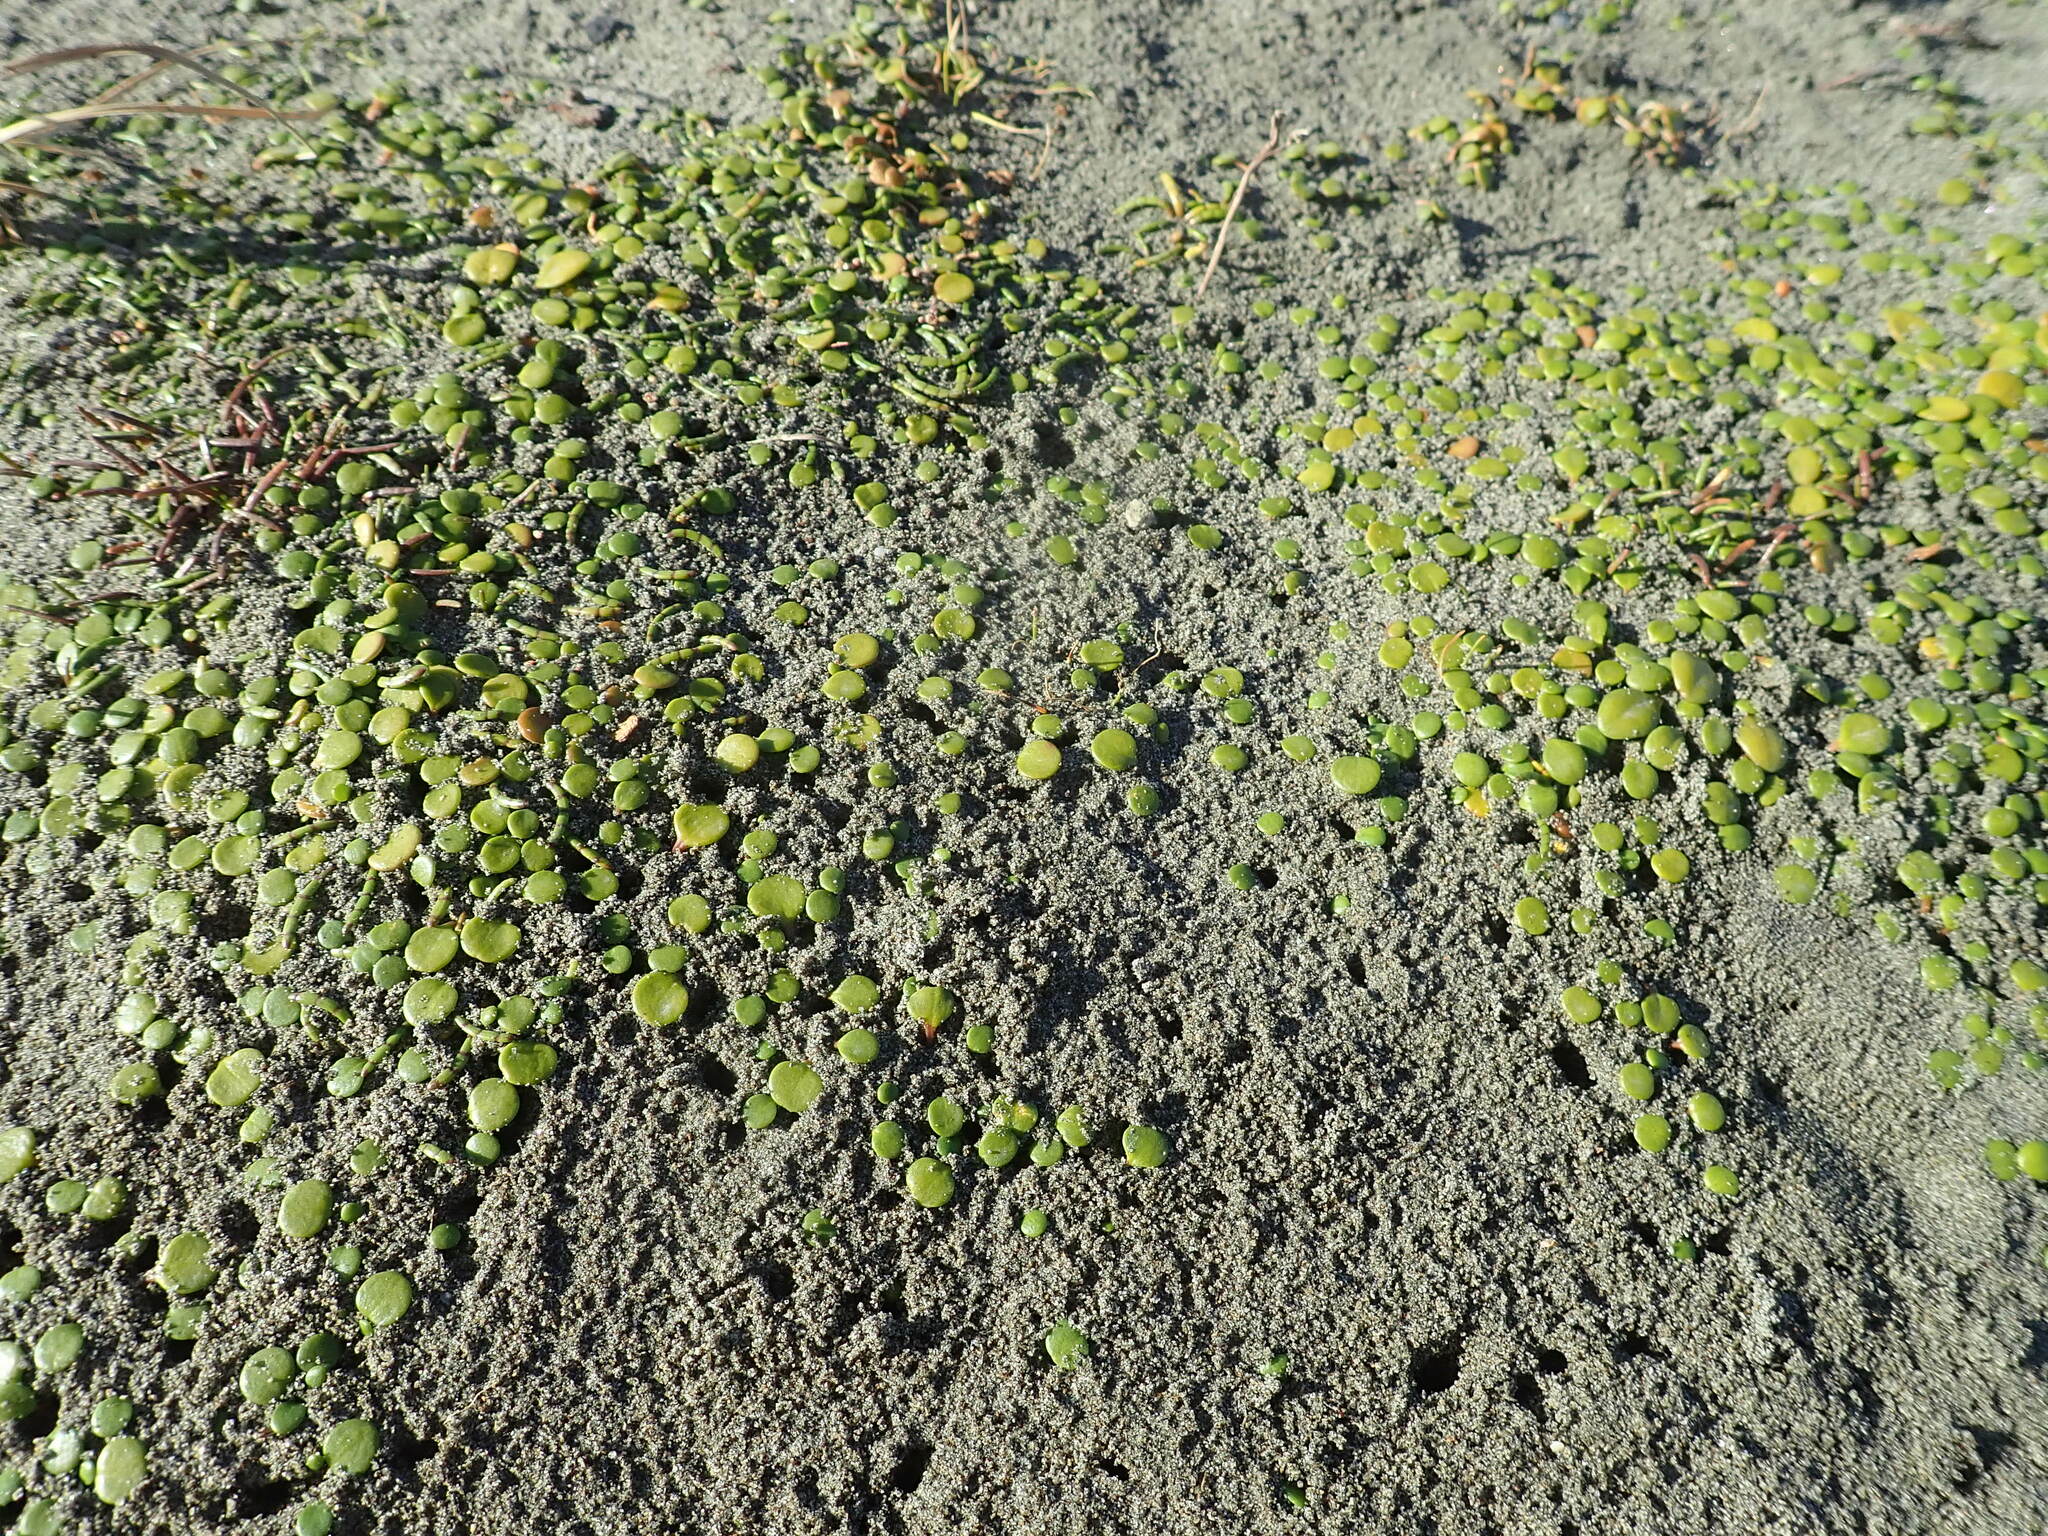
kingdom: Plantae
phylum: Tracheophyta
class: Magnoliopsida
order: Apiales
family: Apiaceae
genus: Lilaeopsis
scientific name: Lilaeopsis novae-zelandiae
